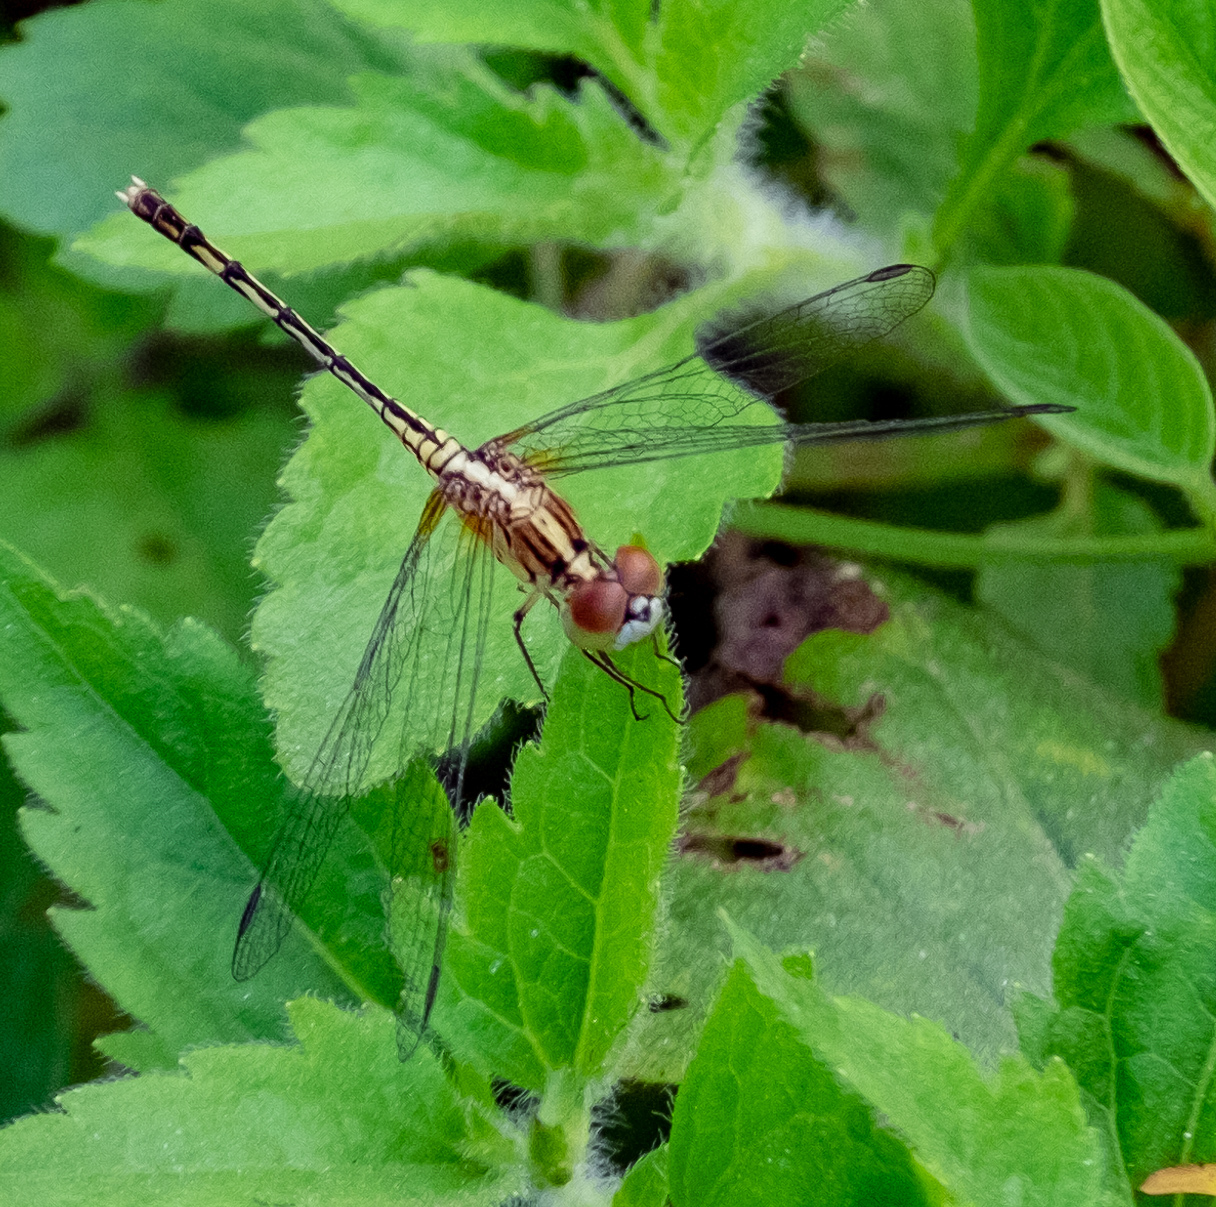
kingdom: Animalia
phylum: Arthropoda
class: Insecta
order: Odonata
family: Libellulidae
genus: Diplacodes
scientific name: Diplacodes trivialis
